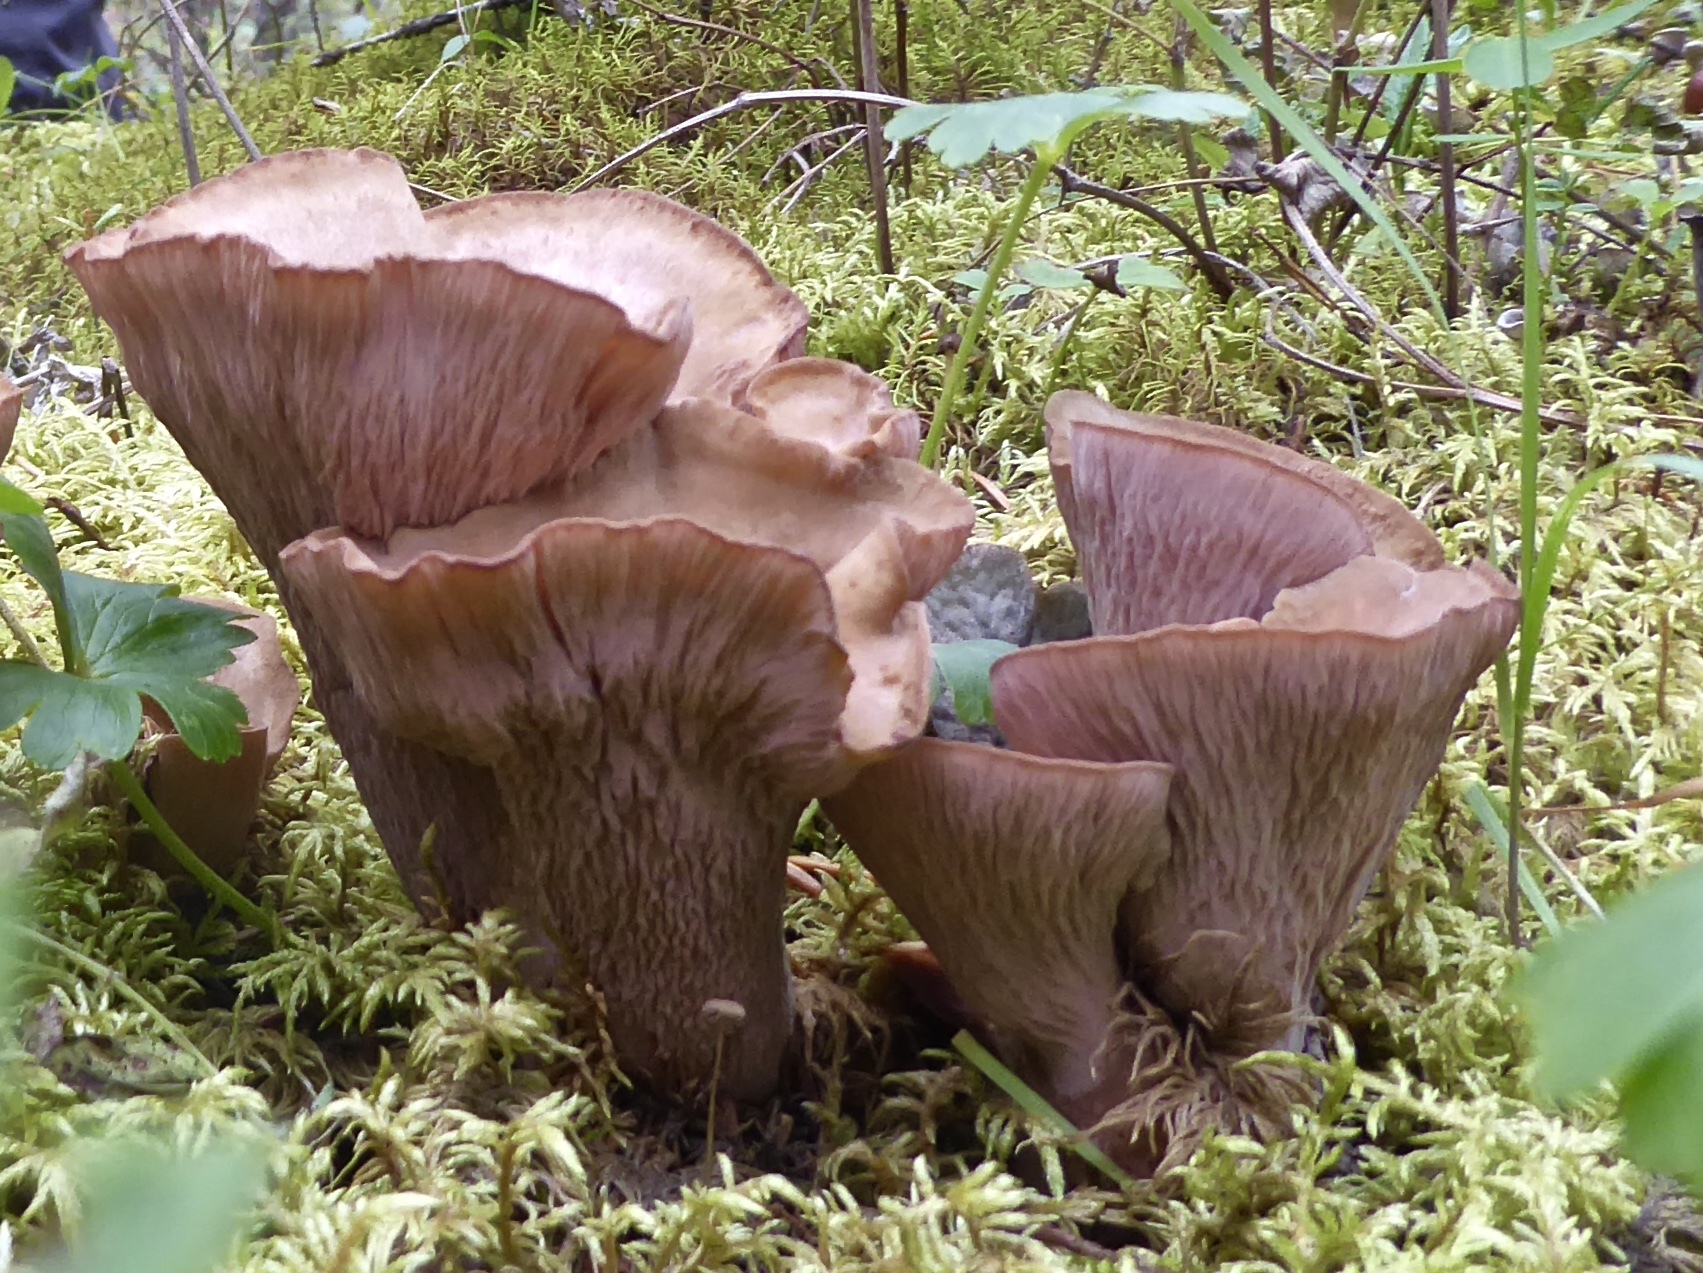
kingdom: Fungi
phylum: Basidiomycota
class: Agaricomycetes
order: Gomphales
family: Gomphaceae
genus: Gomphus
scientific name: Gomphus clavatus
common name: Pig's ear
